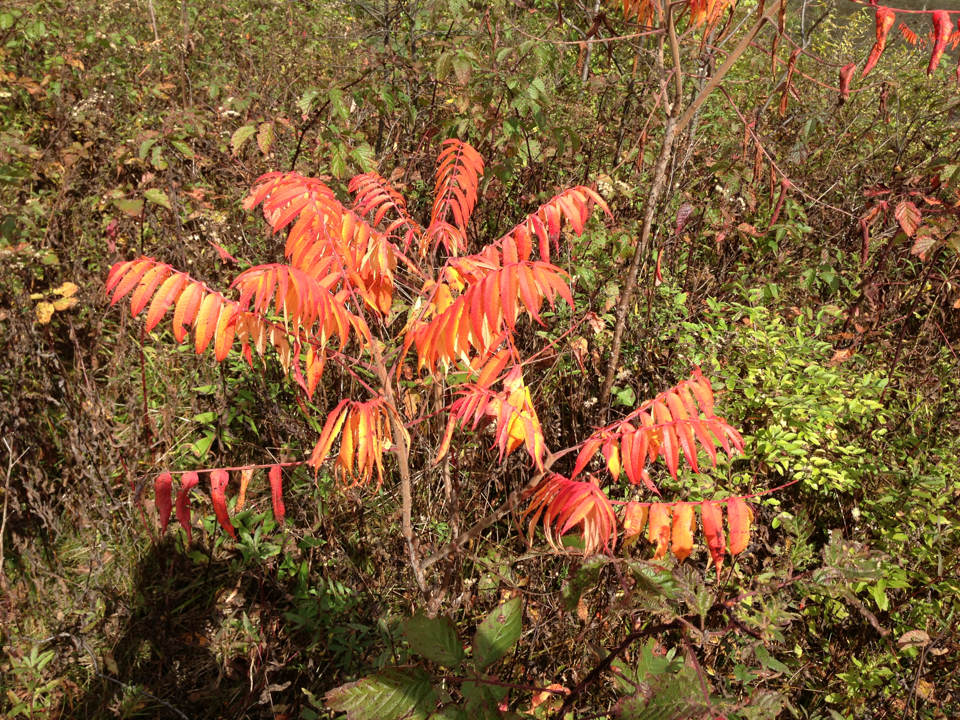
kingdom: Plantae
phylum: Tracheophyta
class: Magnoliopsida
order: Sapindales
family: Anacardiaceae
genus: Rhus
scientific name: Rhus typhina
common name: Staghorn sumac
